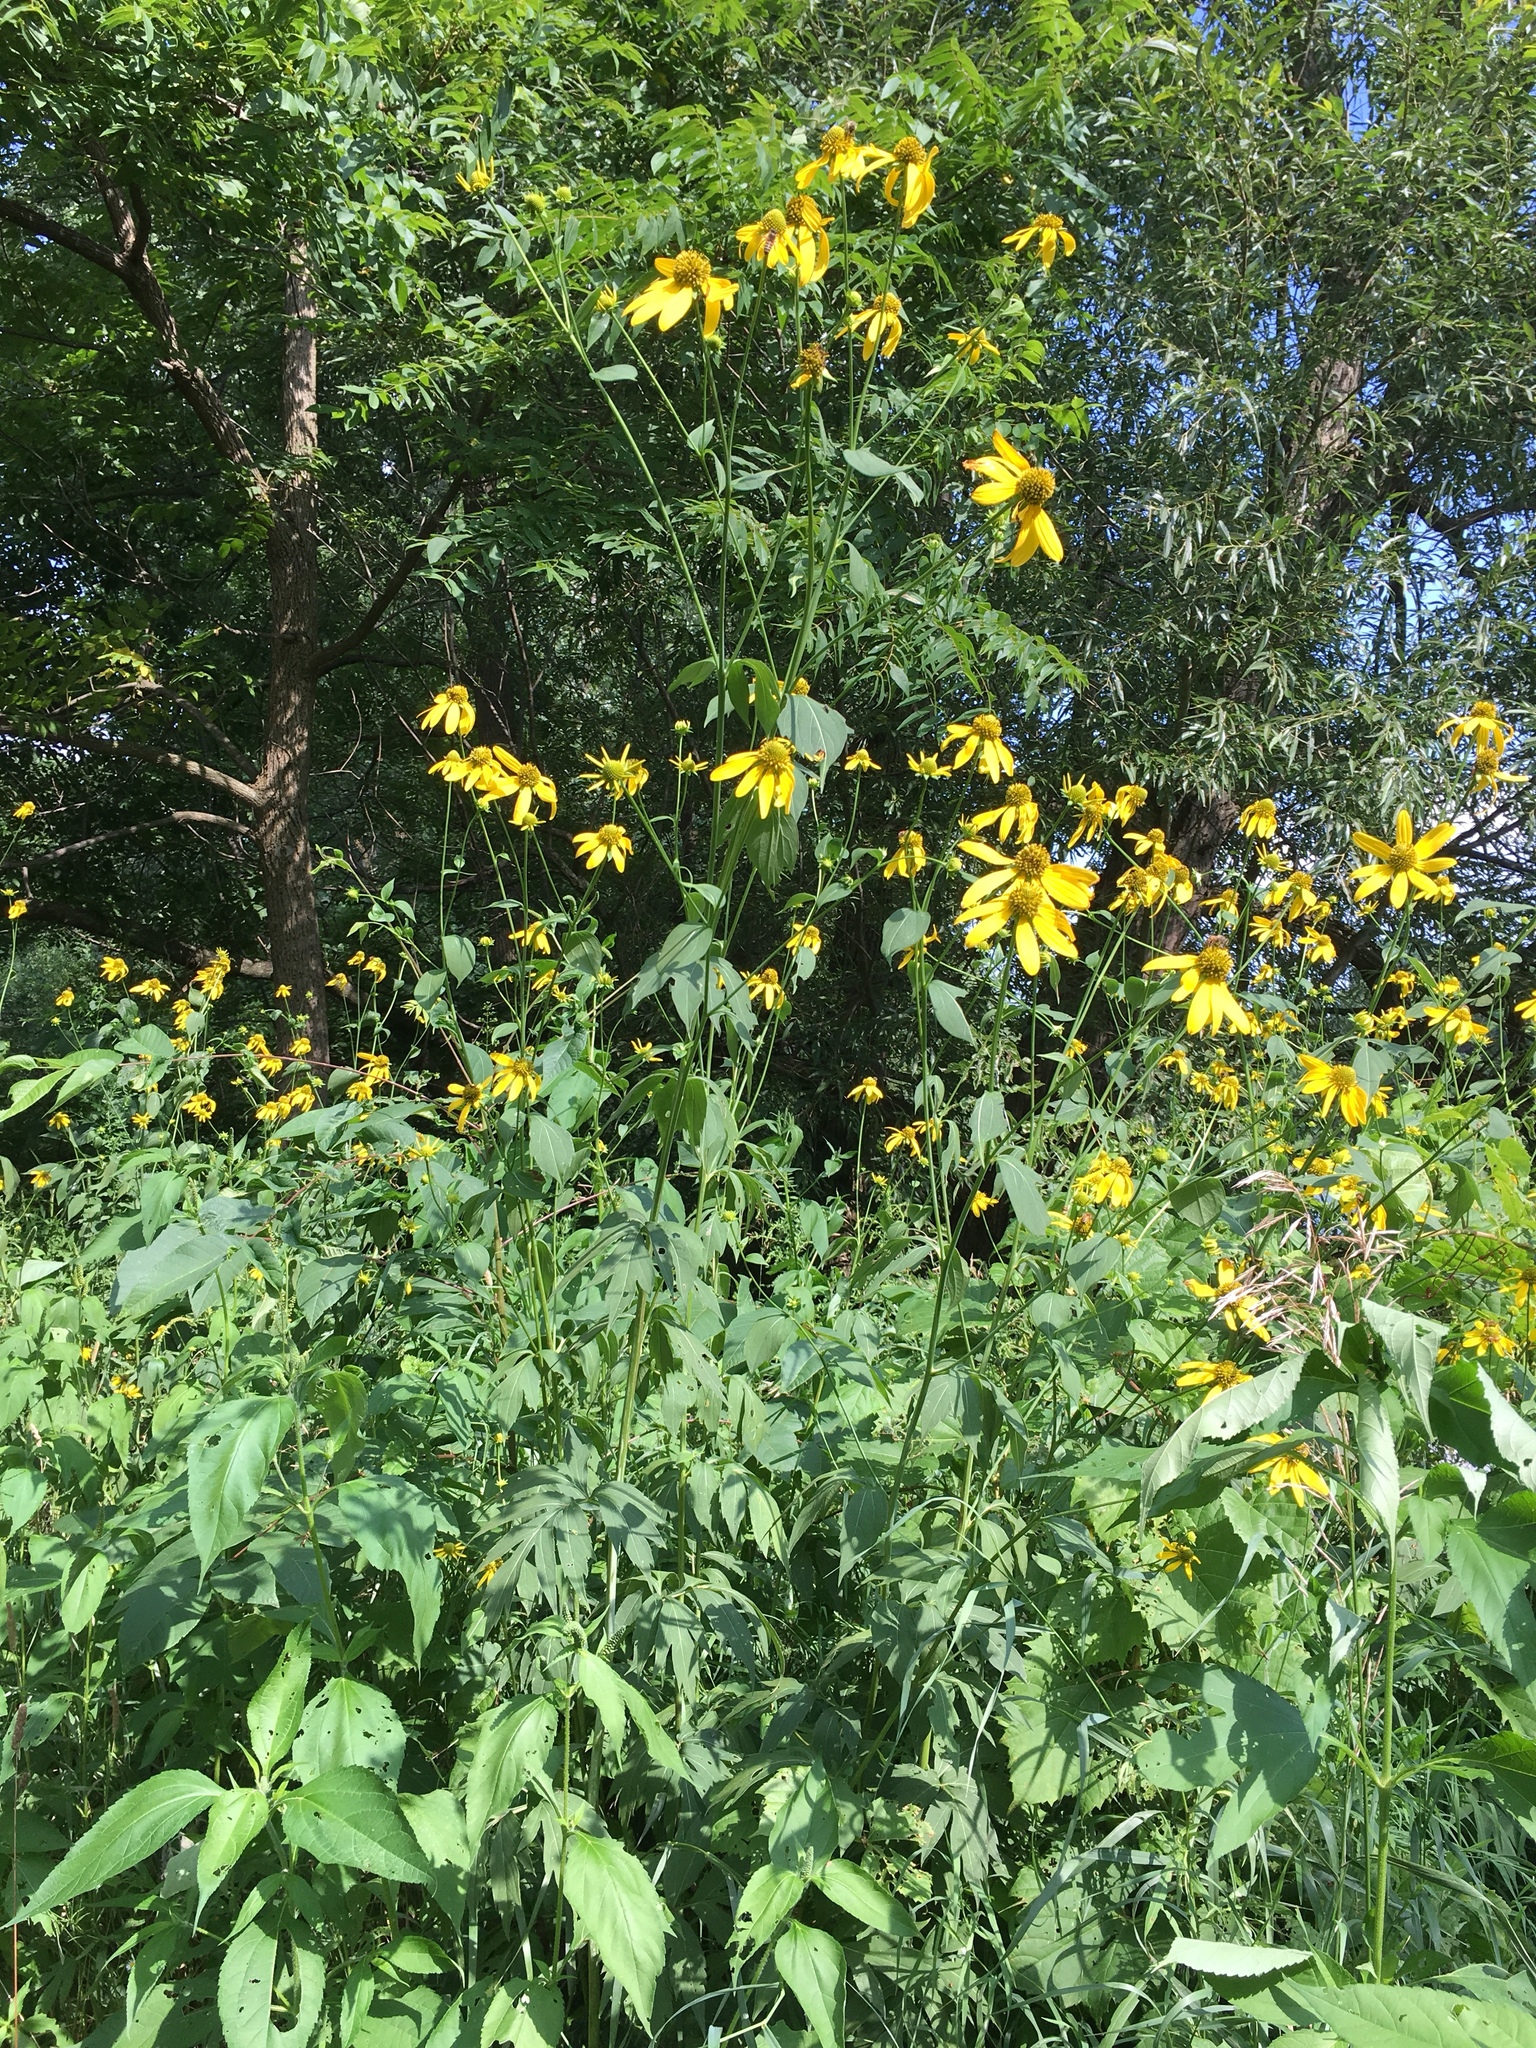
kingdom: Plantae
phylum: Tracheophyta
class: Magnoliopsida
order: Asterales
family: Asteraceae
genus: Rudbeckia
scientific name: Rudbeckia laciniata
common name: Coneflower
